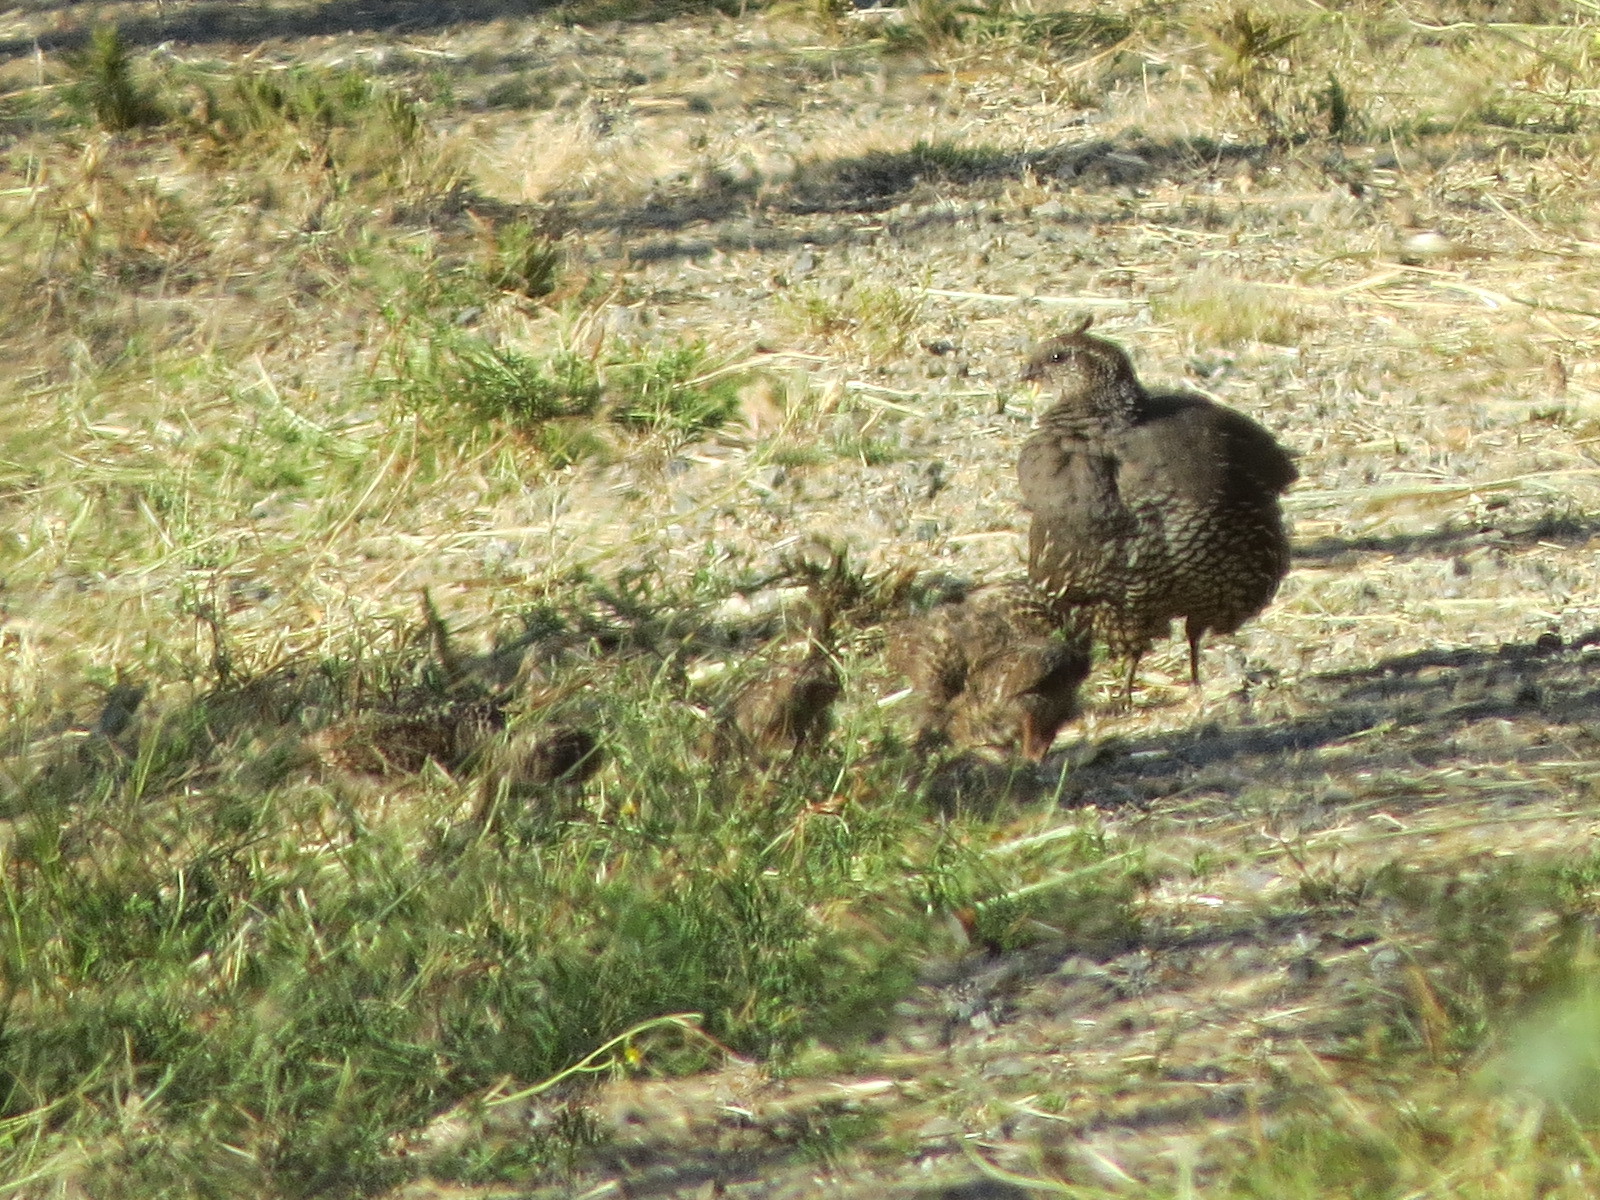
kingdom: Animalia
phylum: Chordata
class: Aves
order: Galliformes
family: Odontophoridae
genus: Callipepla
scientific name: Callipepla californica
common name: California quail
